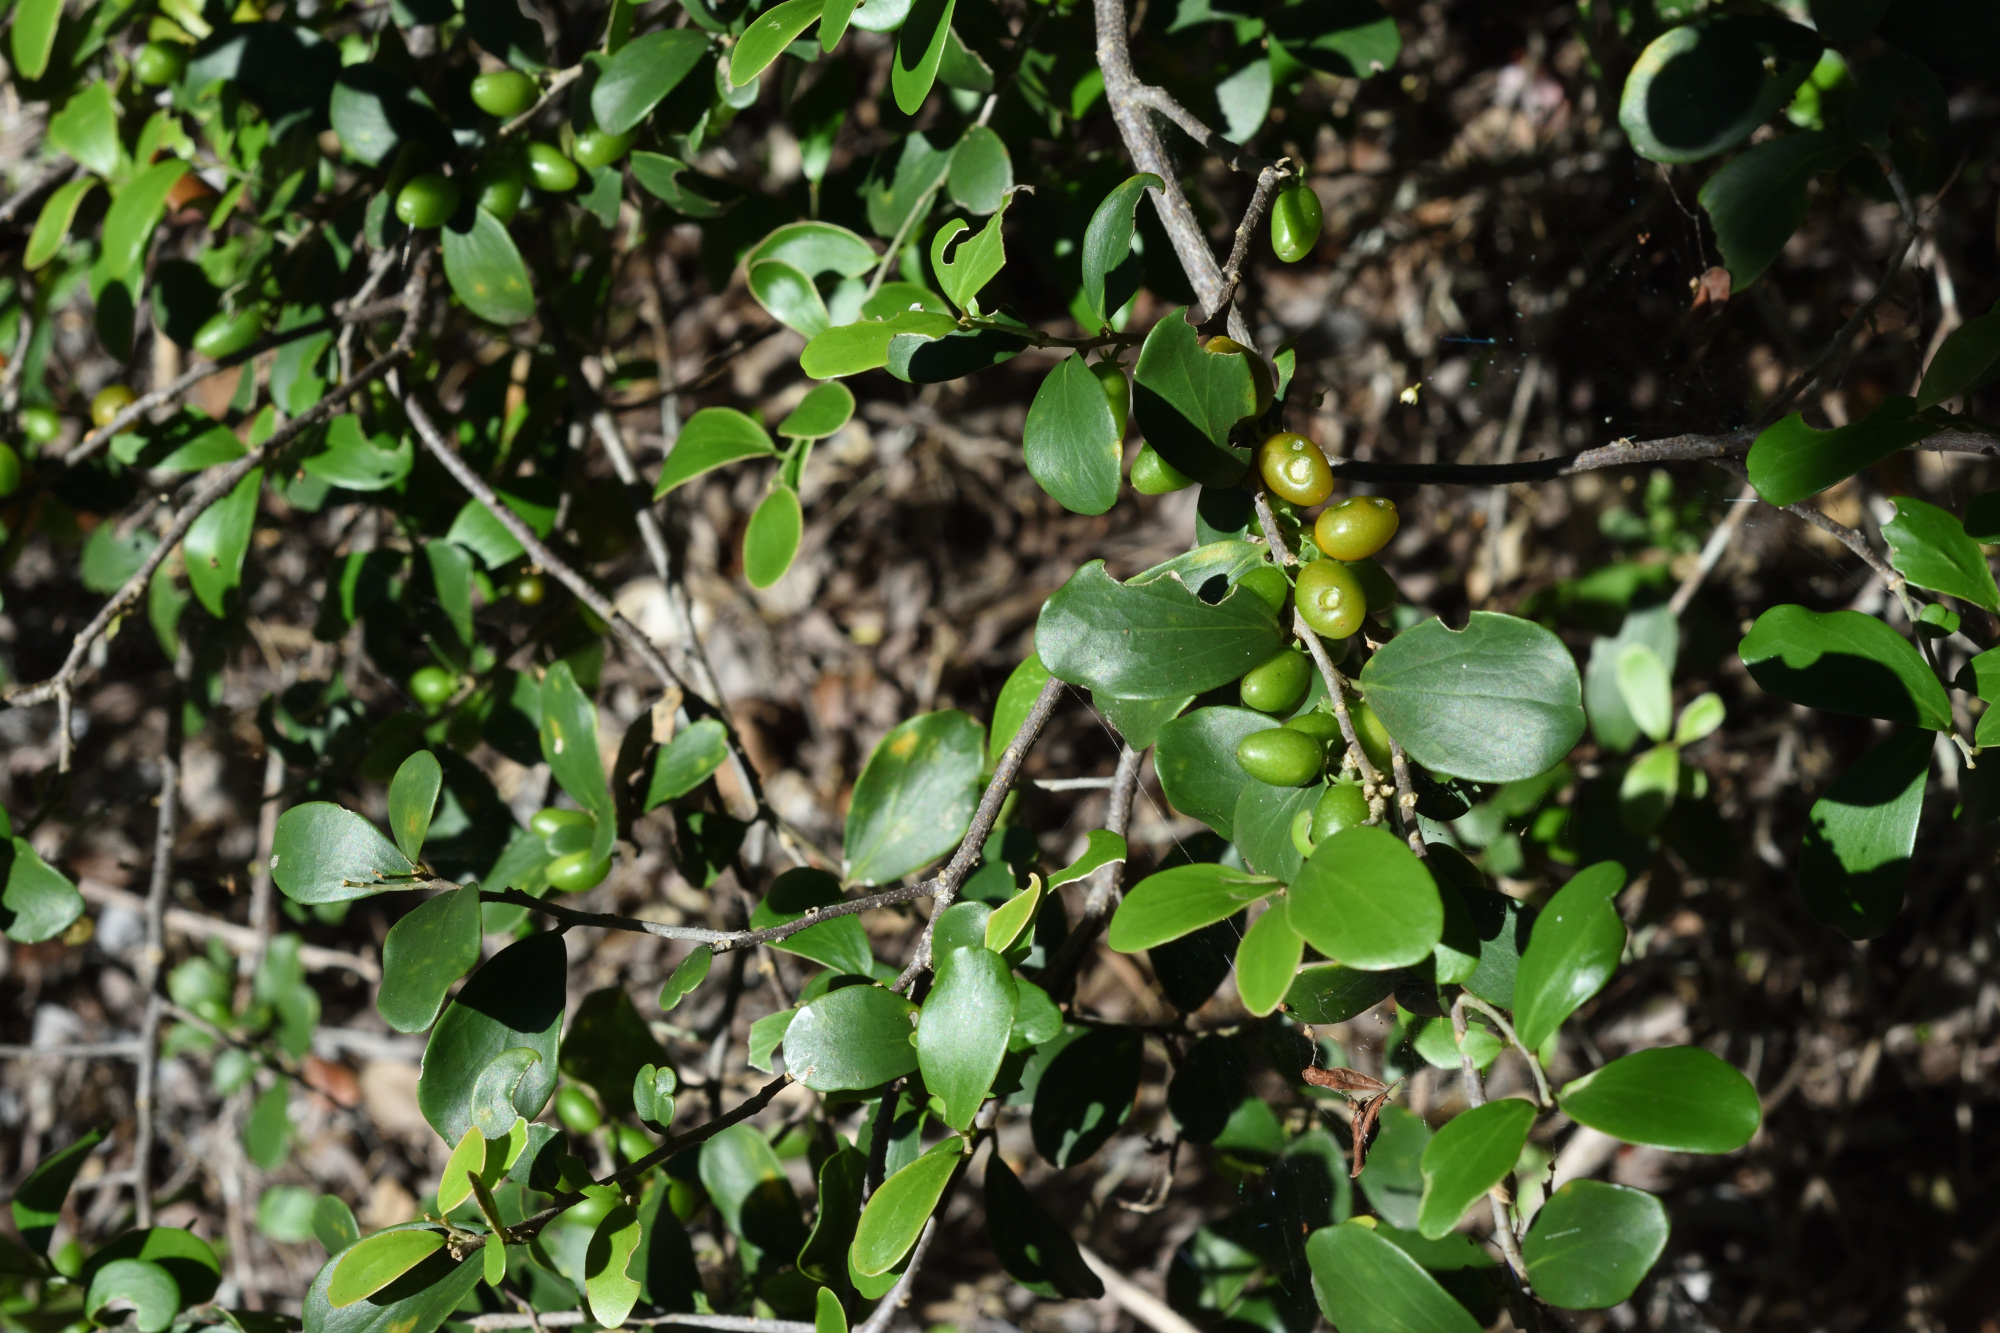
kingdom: Plantae
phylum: Tracheophyta
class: Magnoliopsida
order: Malpighiales
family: Salicaceae
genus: Dovyalis
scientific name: Dovyalis lucida
